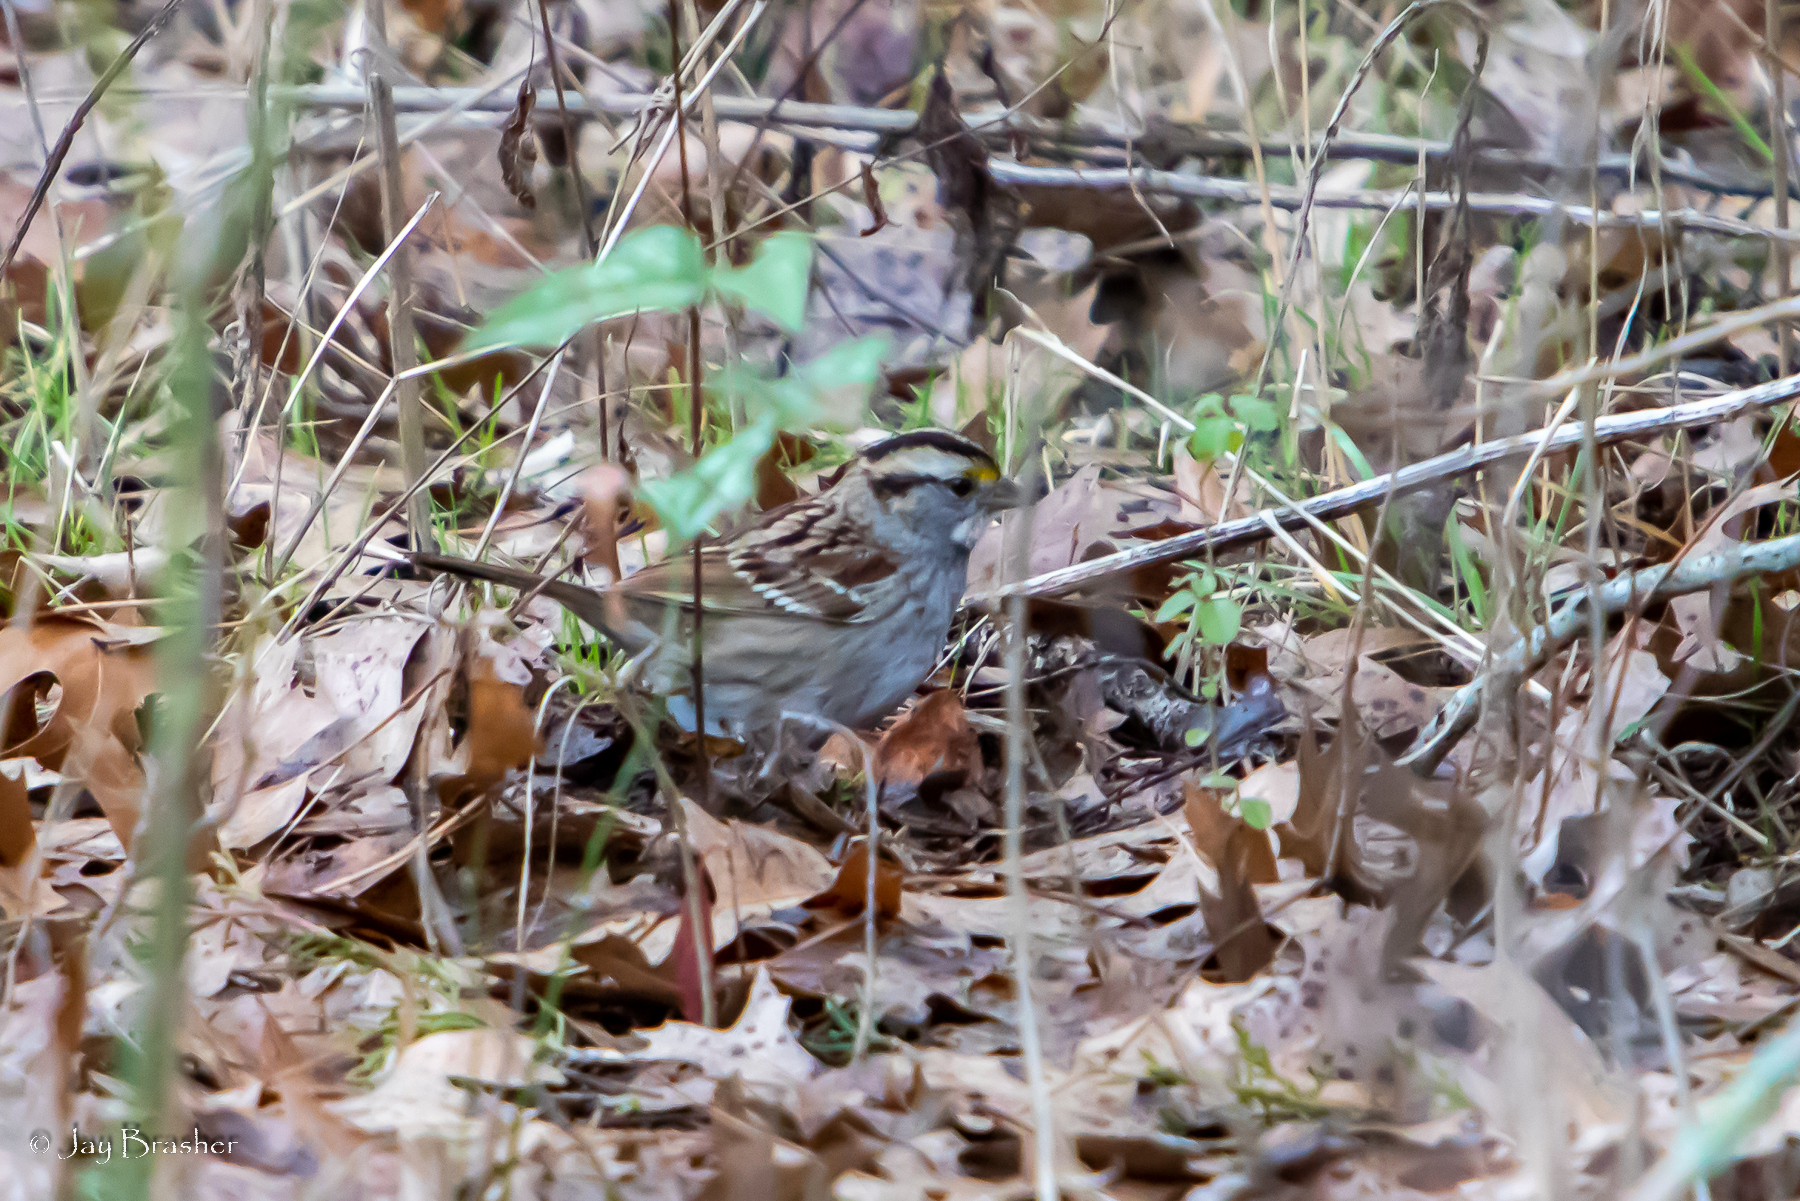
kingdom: Animalia
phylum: Chordata
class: Aves
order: Passeriformes
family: Passerellidae
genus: Zonotrichia
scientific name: Zonotrichia albicollis
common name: White-throated sparrow
